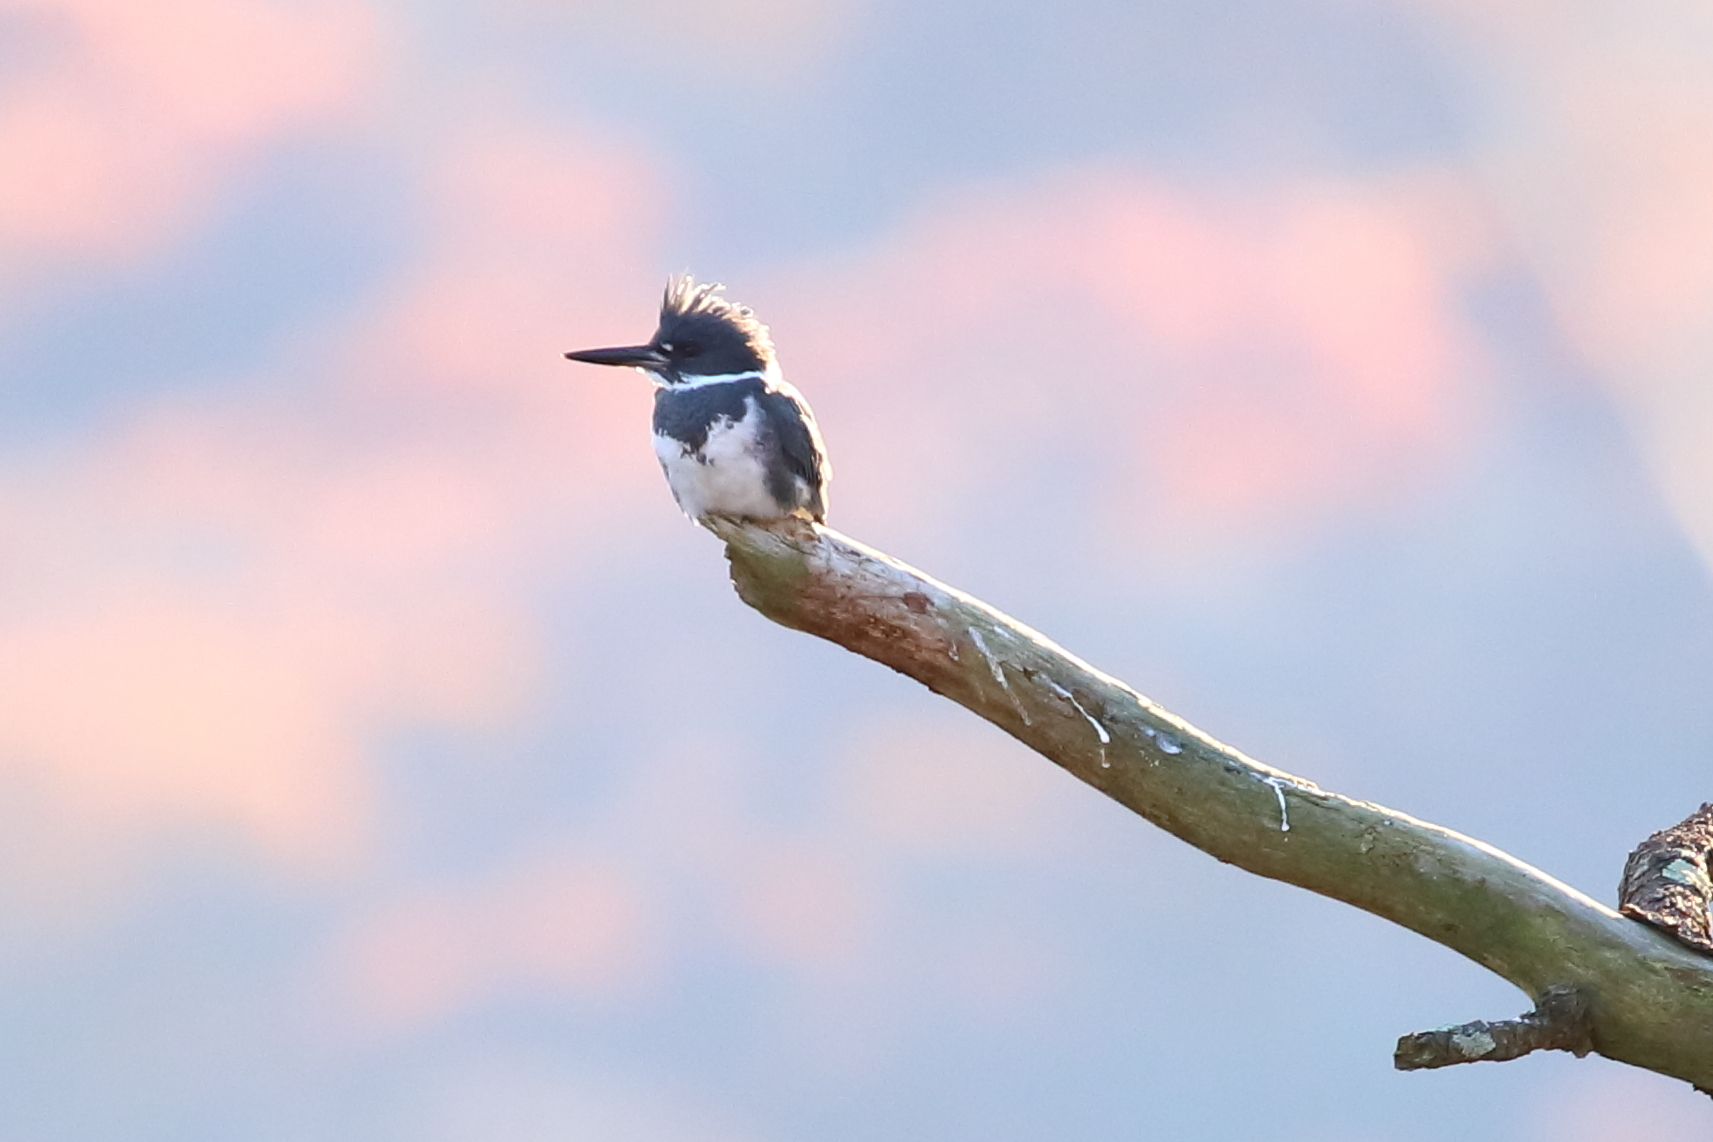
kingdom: Animalia
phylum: Chordata
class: Aves
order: Coraciiformes
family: Alcedinidae
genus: Megaceryle
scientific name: Megaceryle alcyon
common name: Belted kingfisher
